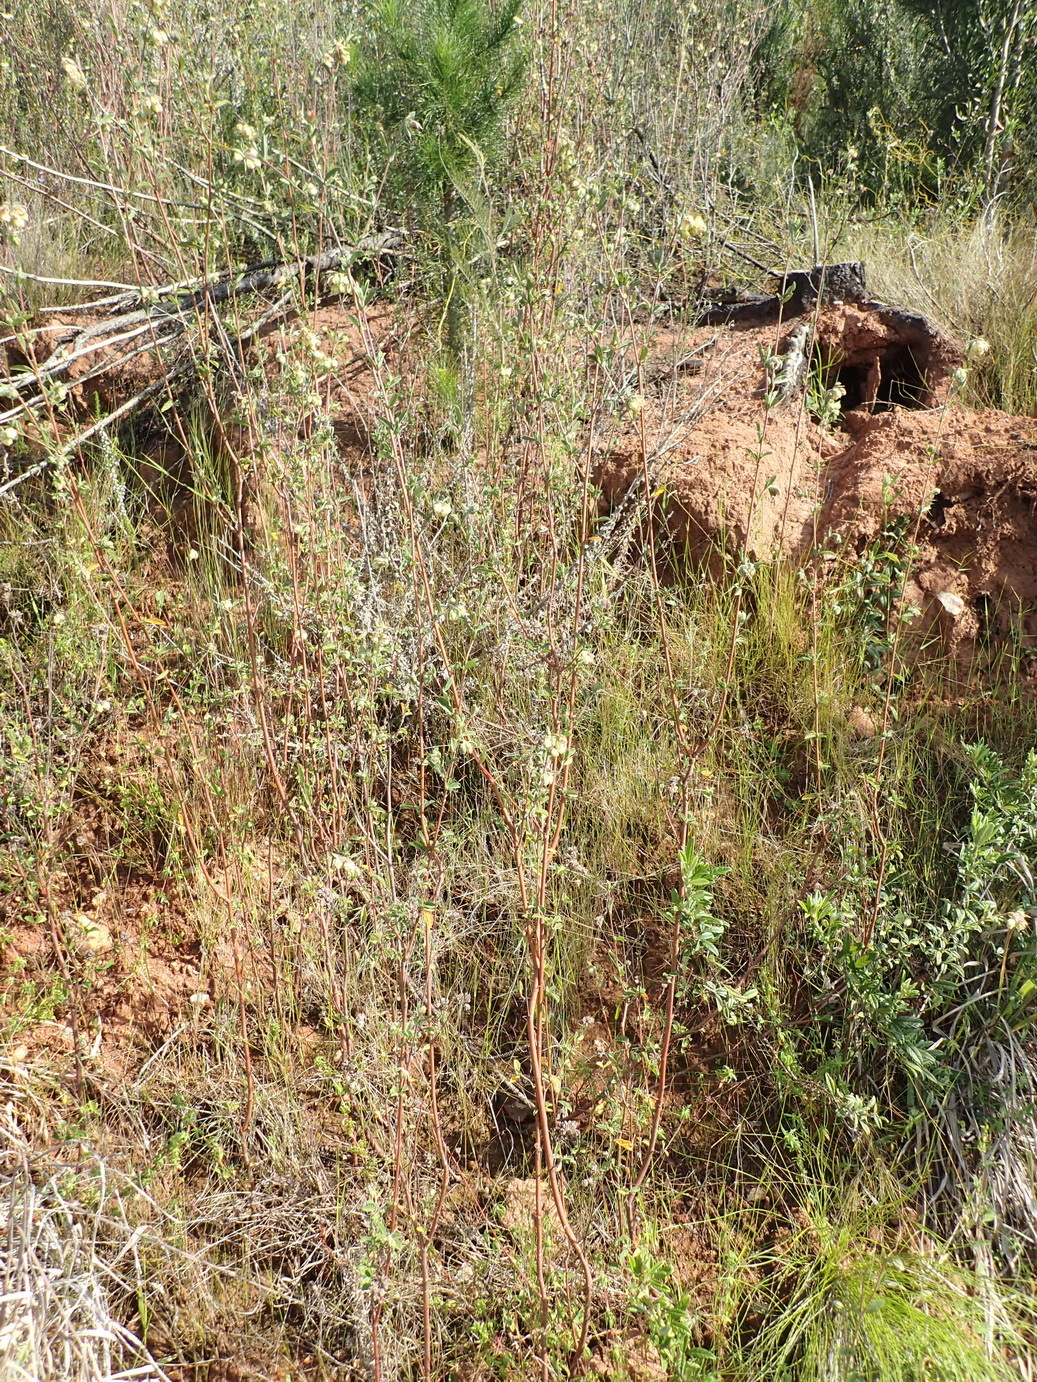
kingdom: Plantae
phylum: Tracheophyta
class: Magnoliopsida
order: Malvales
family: Malvaceae
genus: Hermannia
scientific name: Hermannia hyssopifolia
